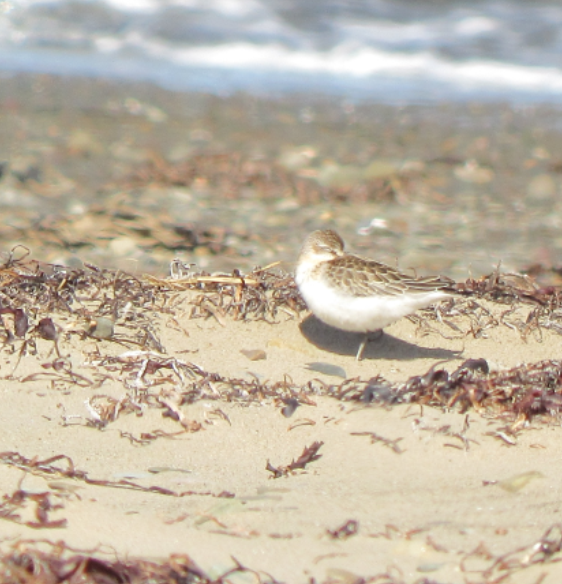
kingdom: Animalia
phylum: Chordata
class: Aves
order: Charadriiformes
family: Scolopacidae
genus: Calidris
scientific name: Calidris minutilla
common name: Least sandpiper
